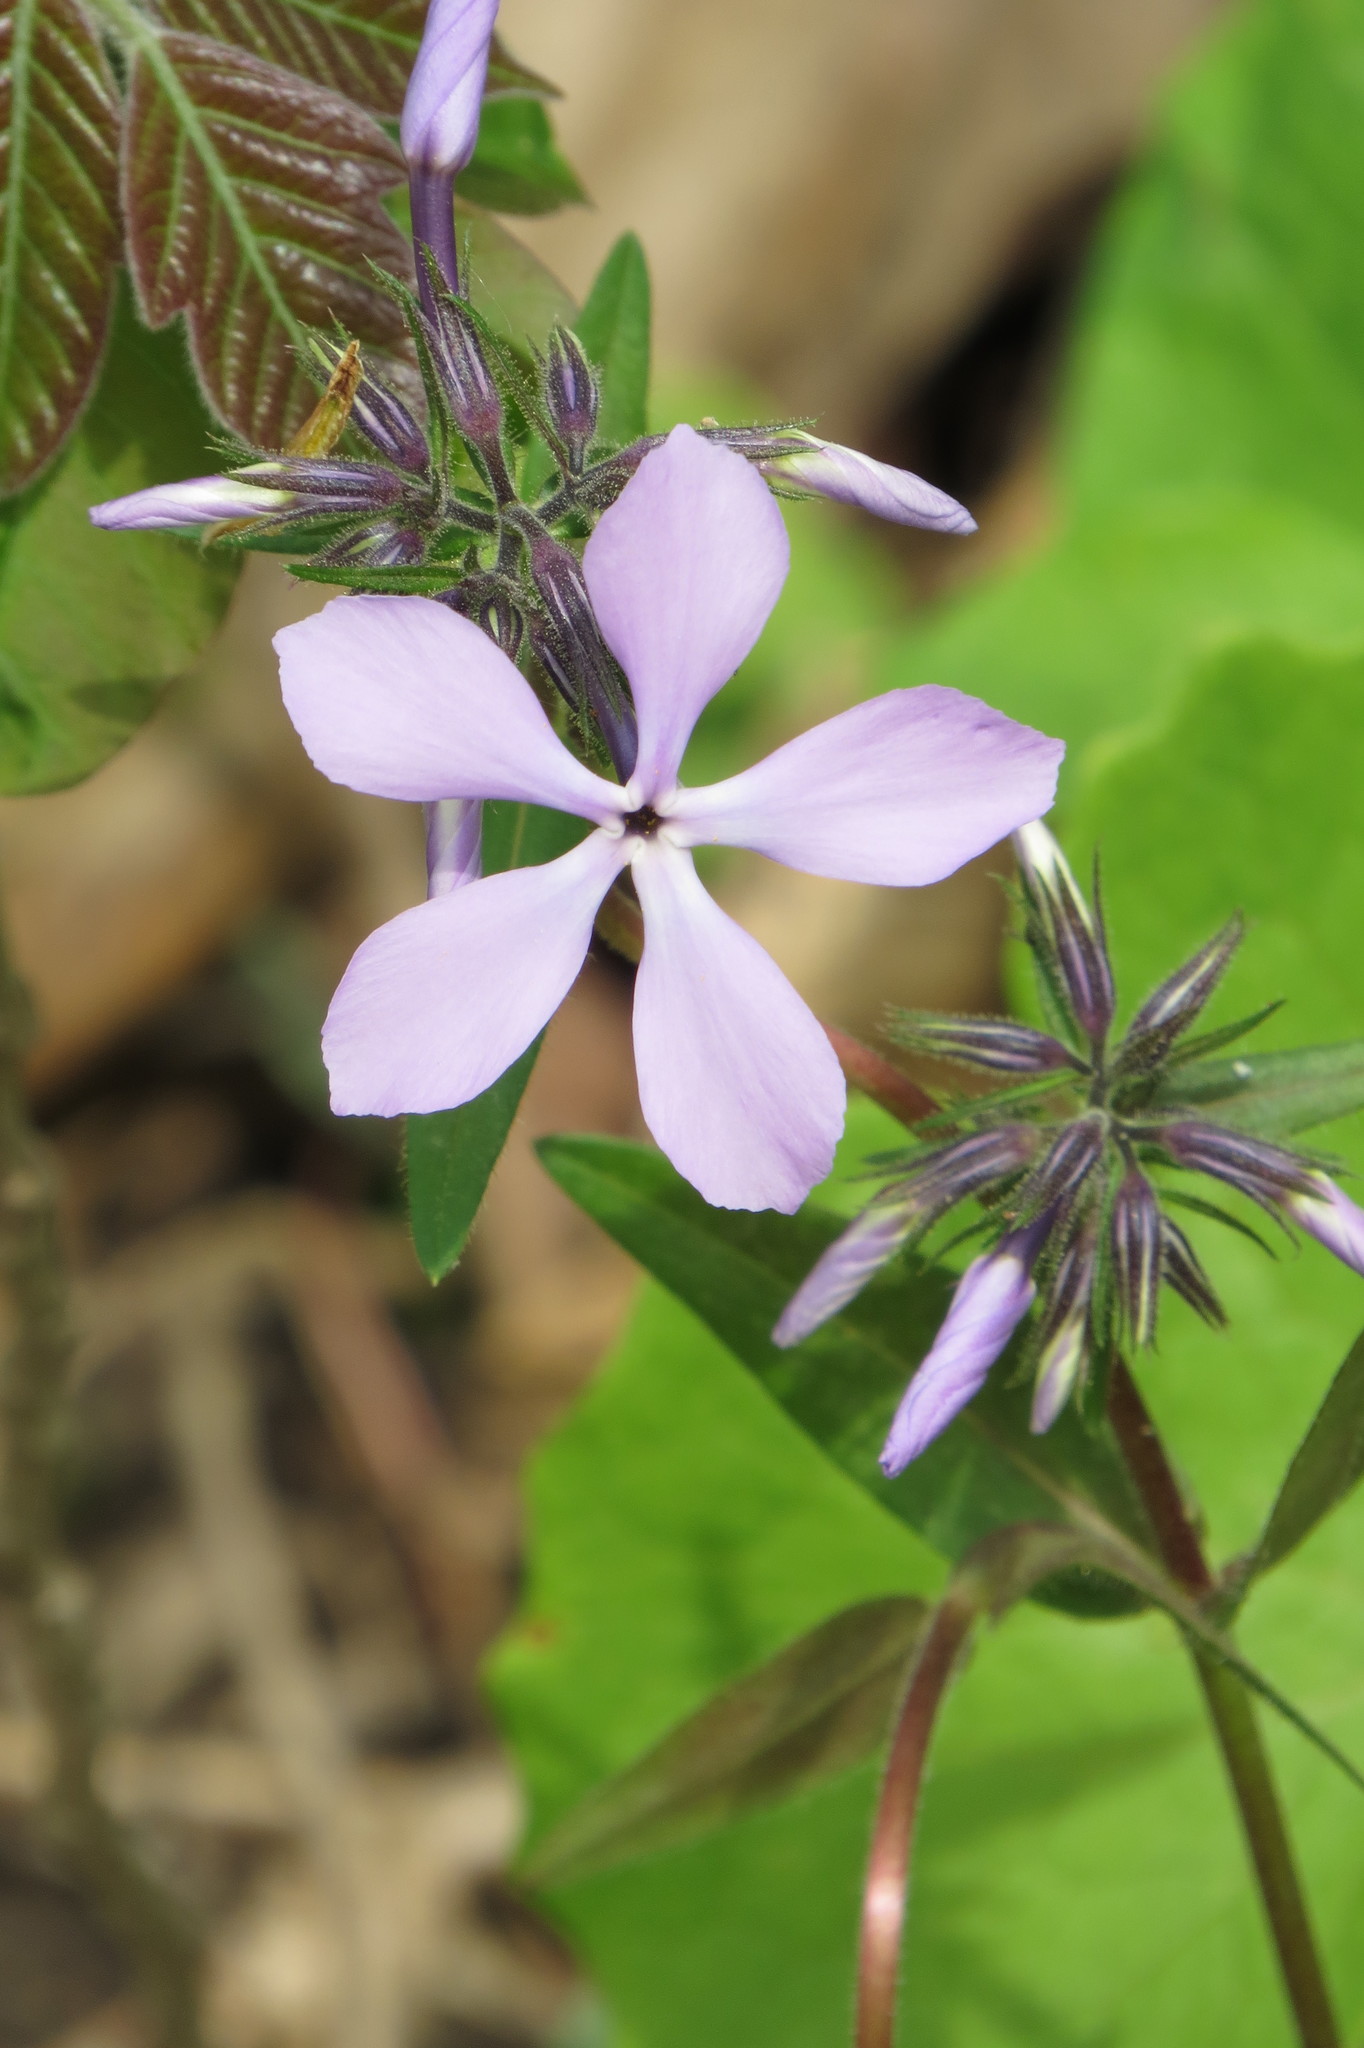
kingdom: Plantae
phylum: Tracheophyta
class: Magnoliopsida
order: Ericales
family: Polemoniaceae
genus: Phlox
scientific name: Phlox divaricata
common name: Blue phlox
